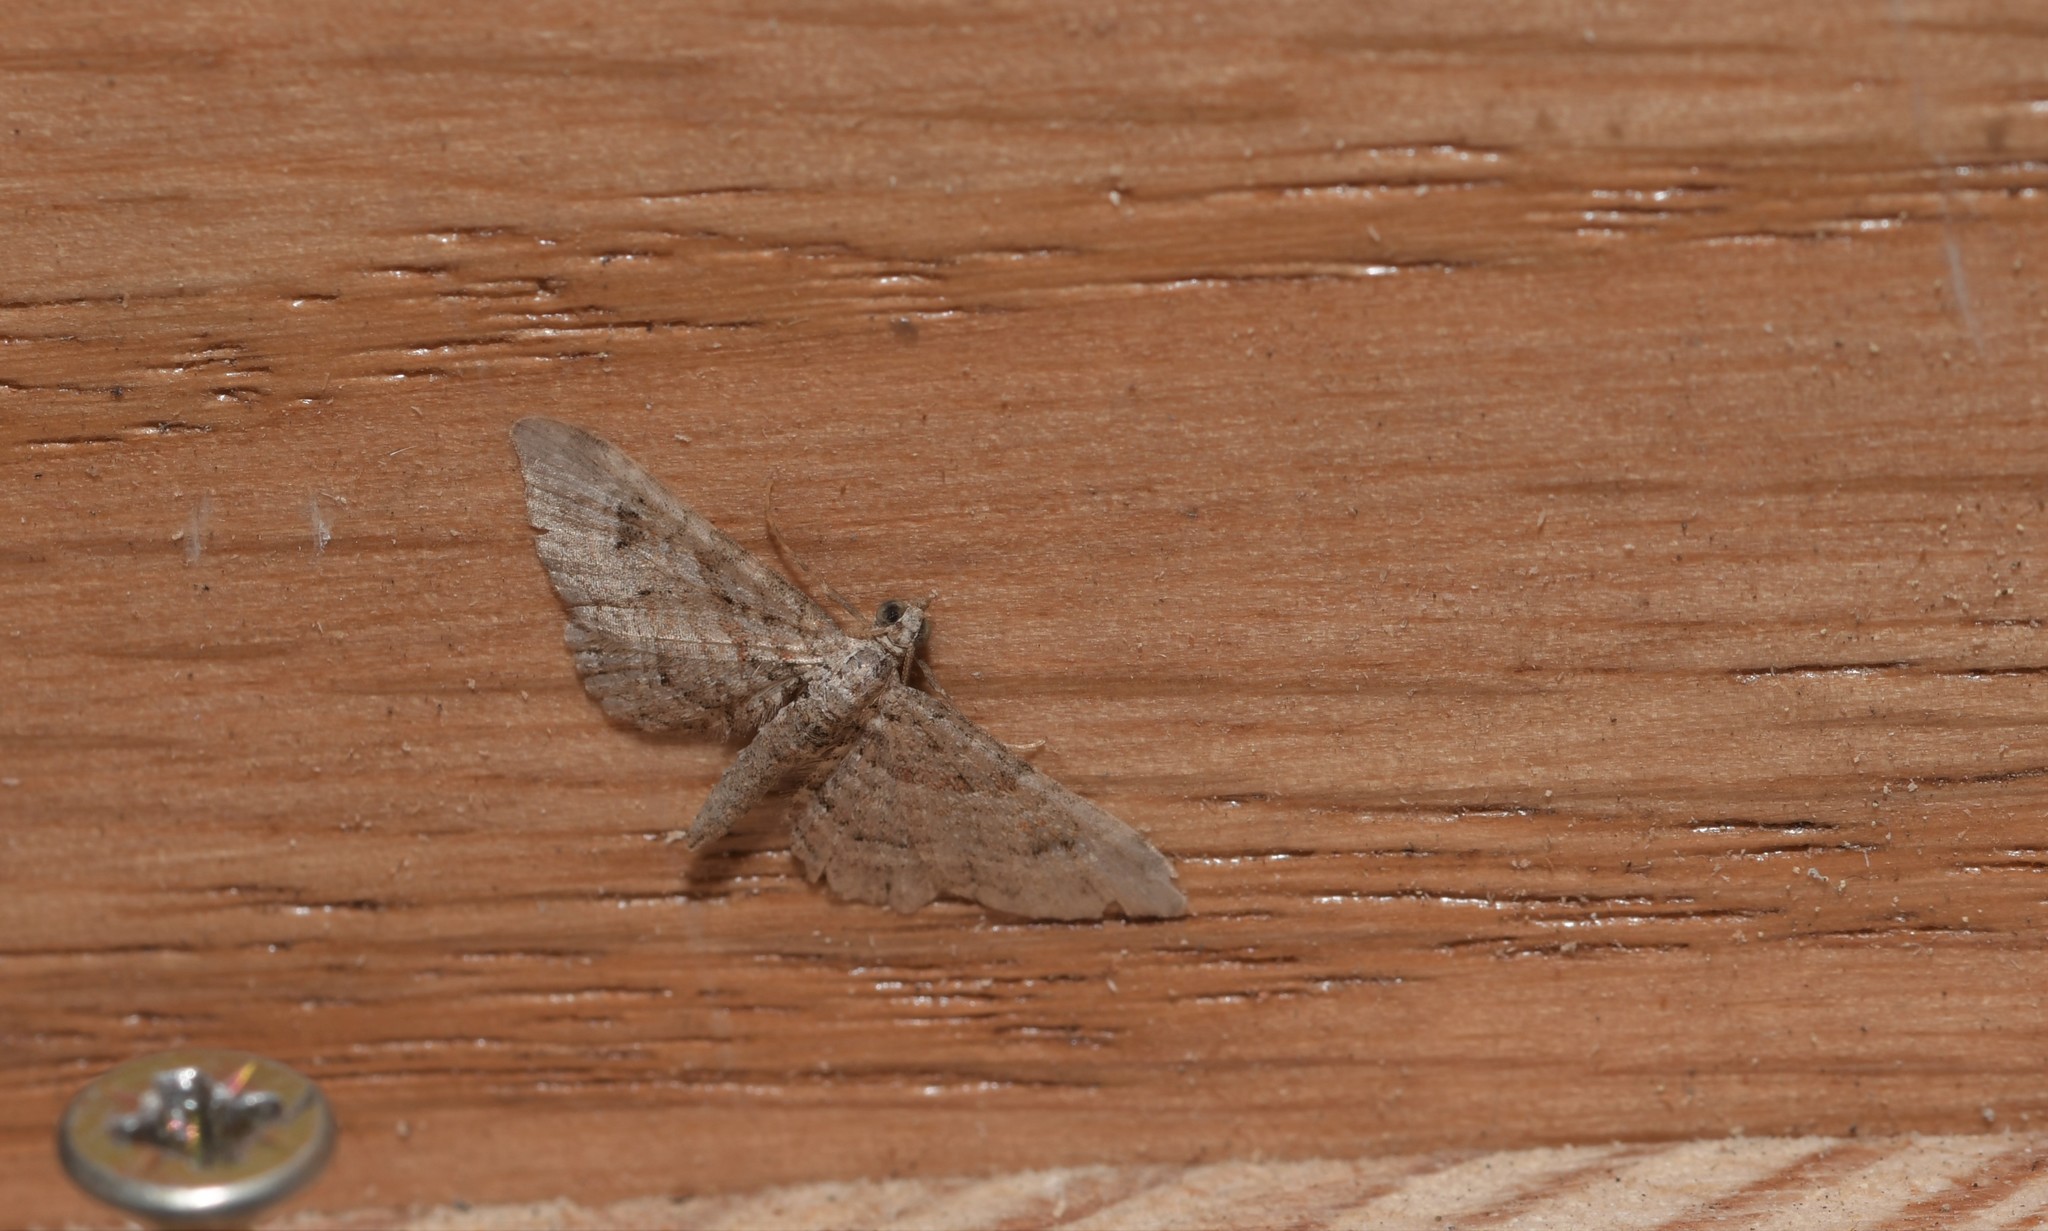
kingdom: Animalia
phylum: Arthropoda
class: Insecta
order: Lepidoptera
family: Geometridae
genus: Gymnoscelis
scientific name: Gymnoscelis rufifasciata
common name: Double-striped pug
